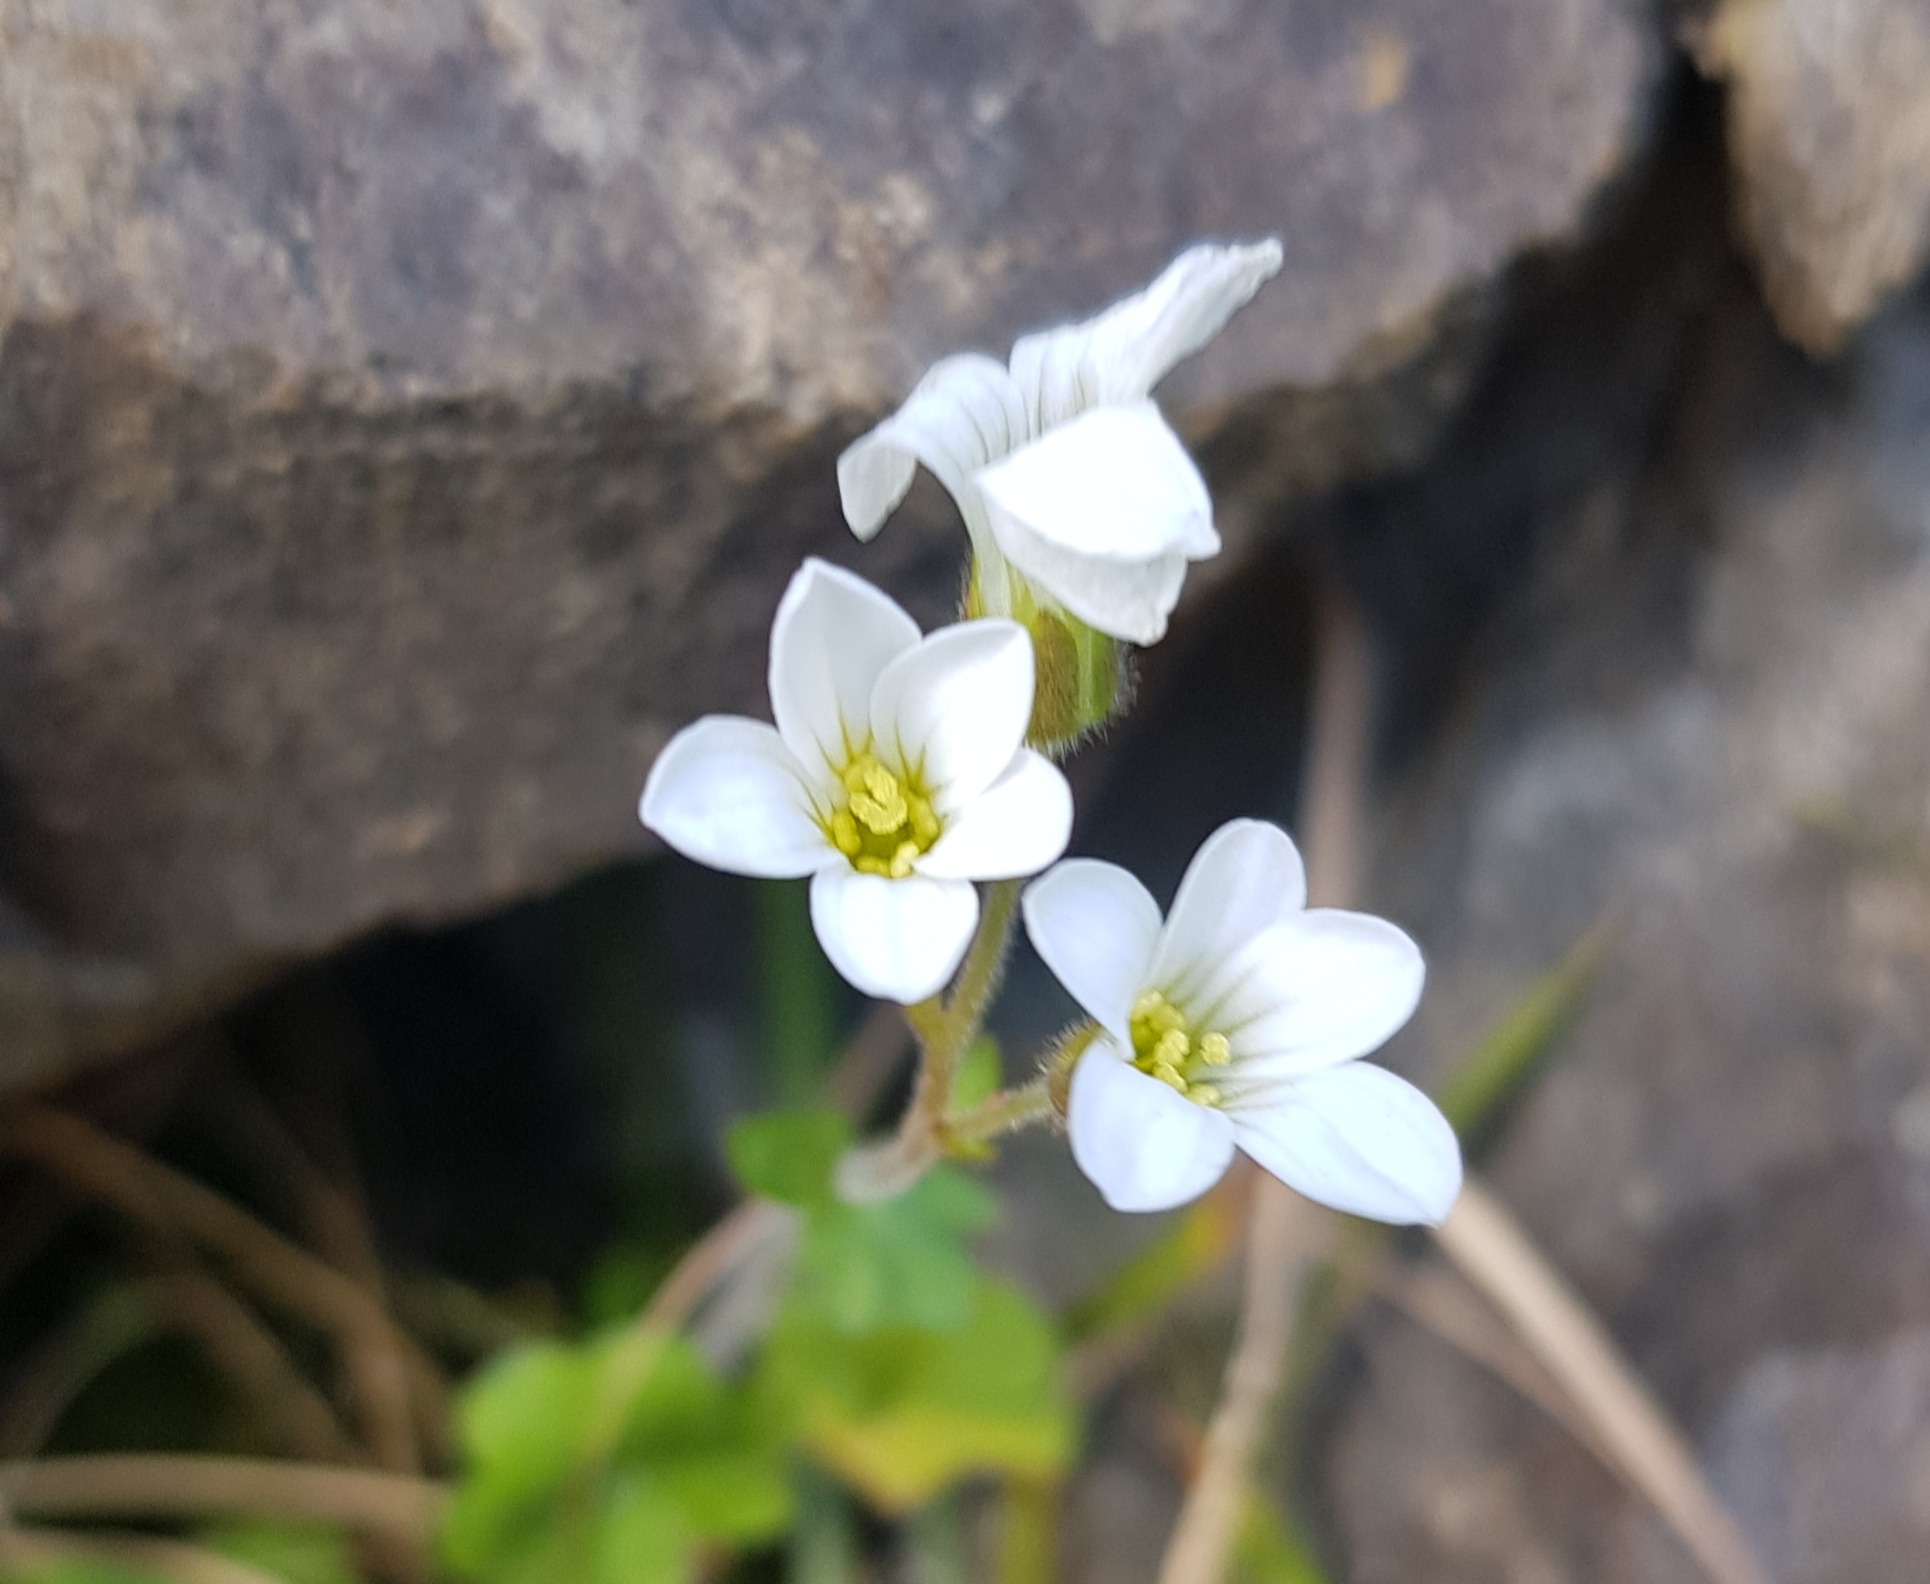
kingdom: Plantae
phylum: Tracheophyta
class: Magnoliopsida
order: Saxifragales
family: Saxifragaceae
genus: Saxifraga
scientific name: Saxifraga sibirica
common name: Siberian saxifrage
